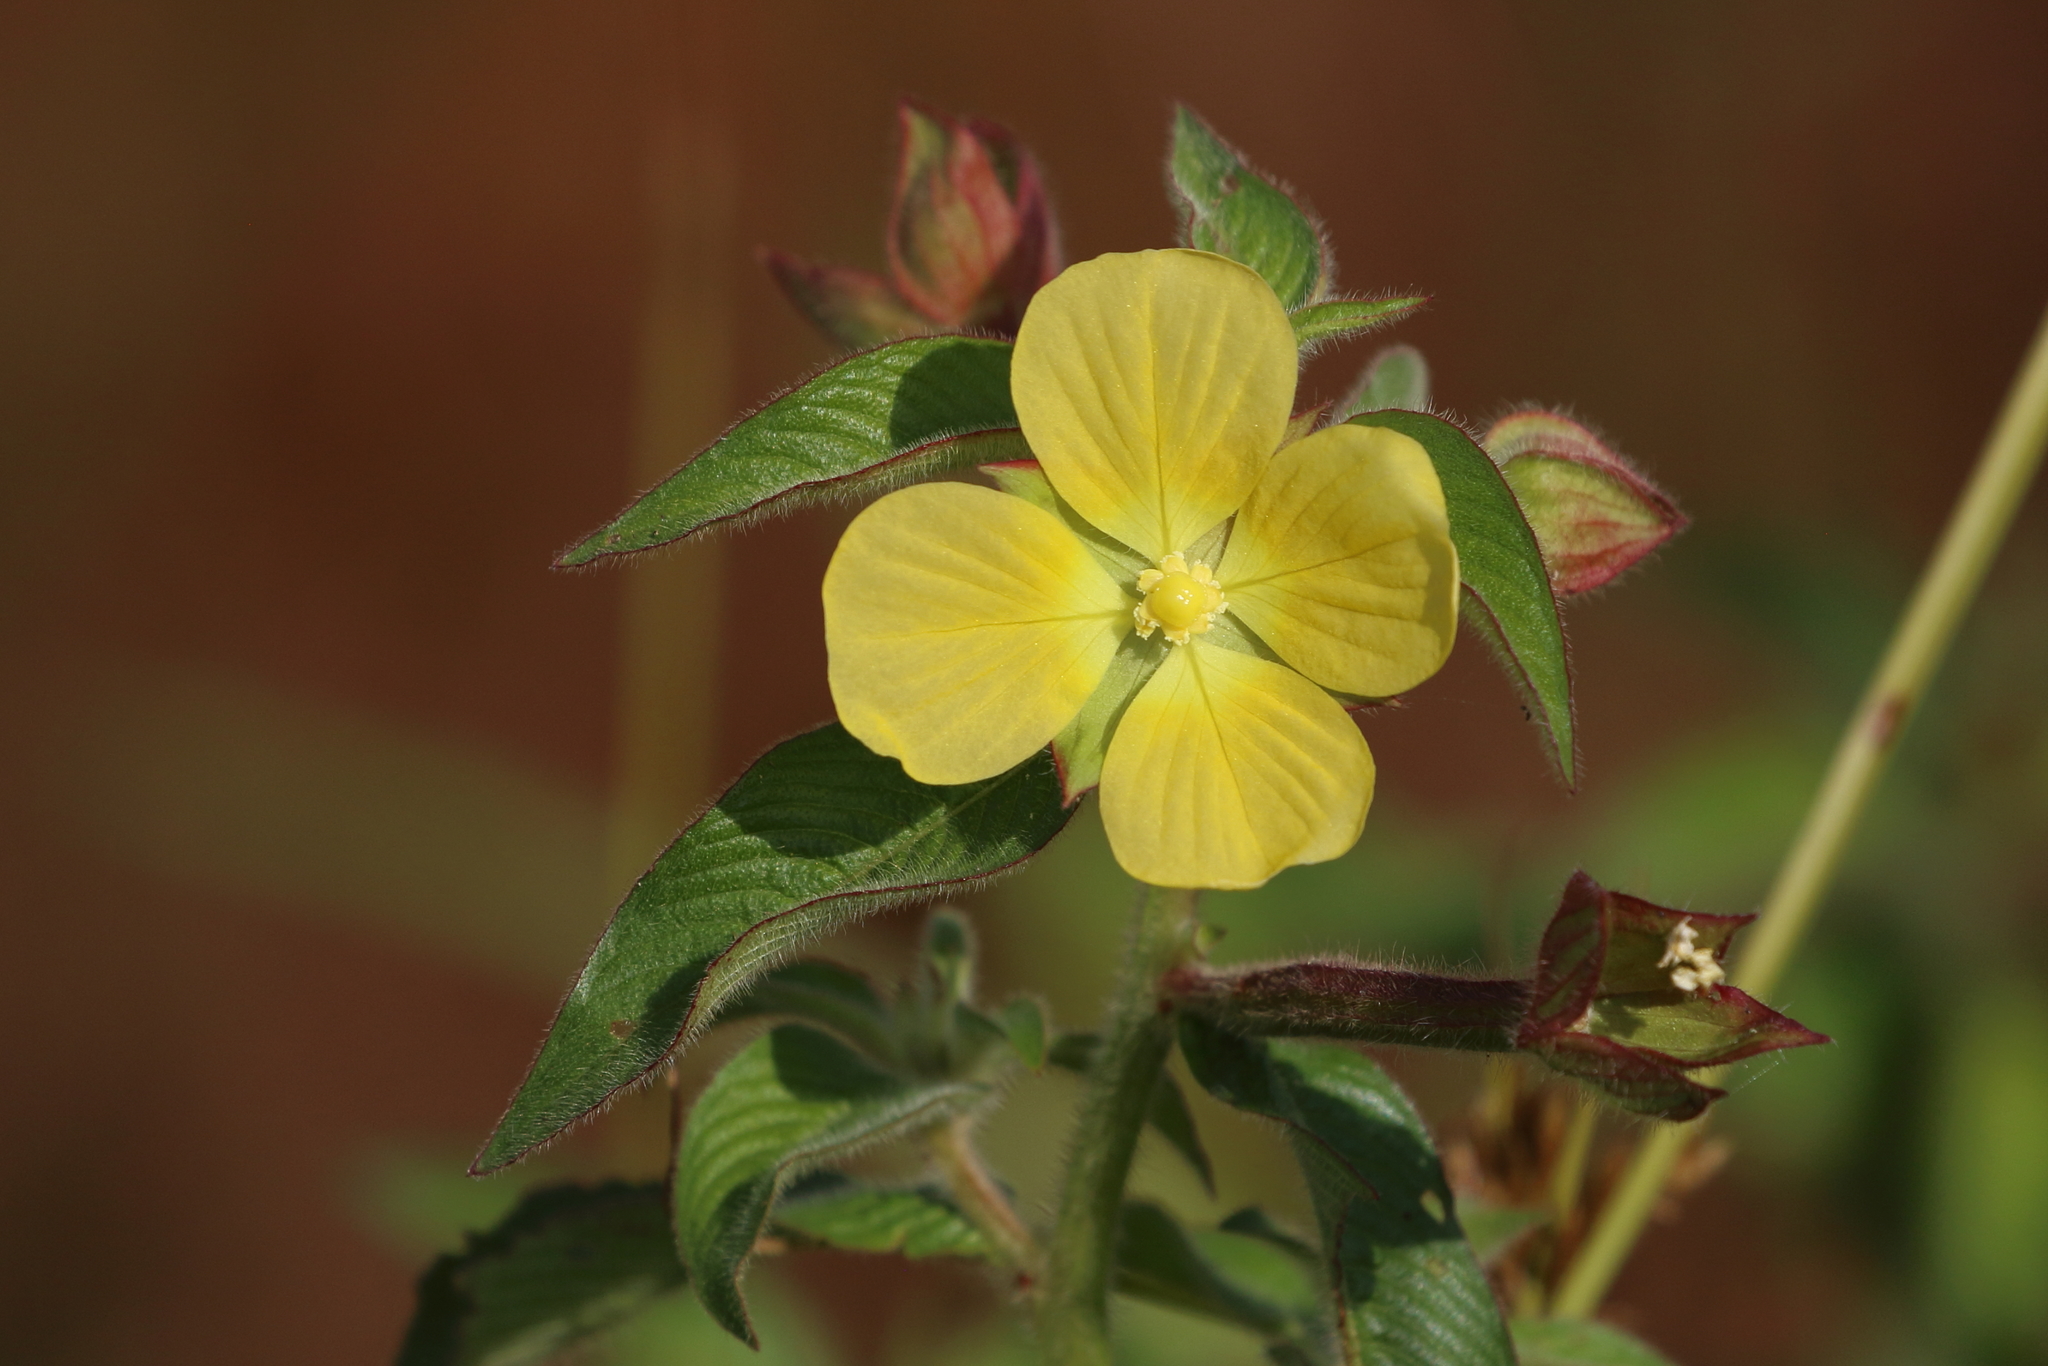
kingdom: Plantae
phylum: Tracheophyta
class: Magnoliopsida
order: Myrtales
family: Onagraceae
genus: Ludwigia
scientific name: Ludwigia octovalvis
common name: Water-primrose
